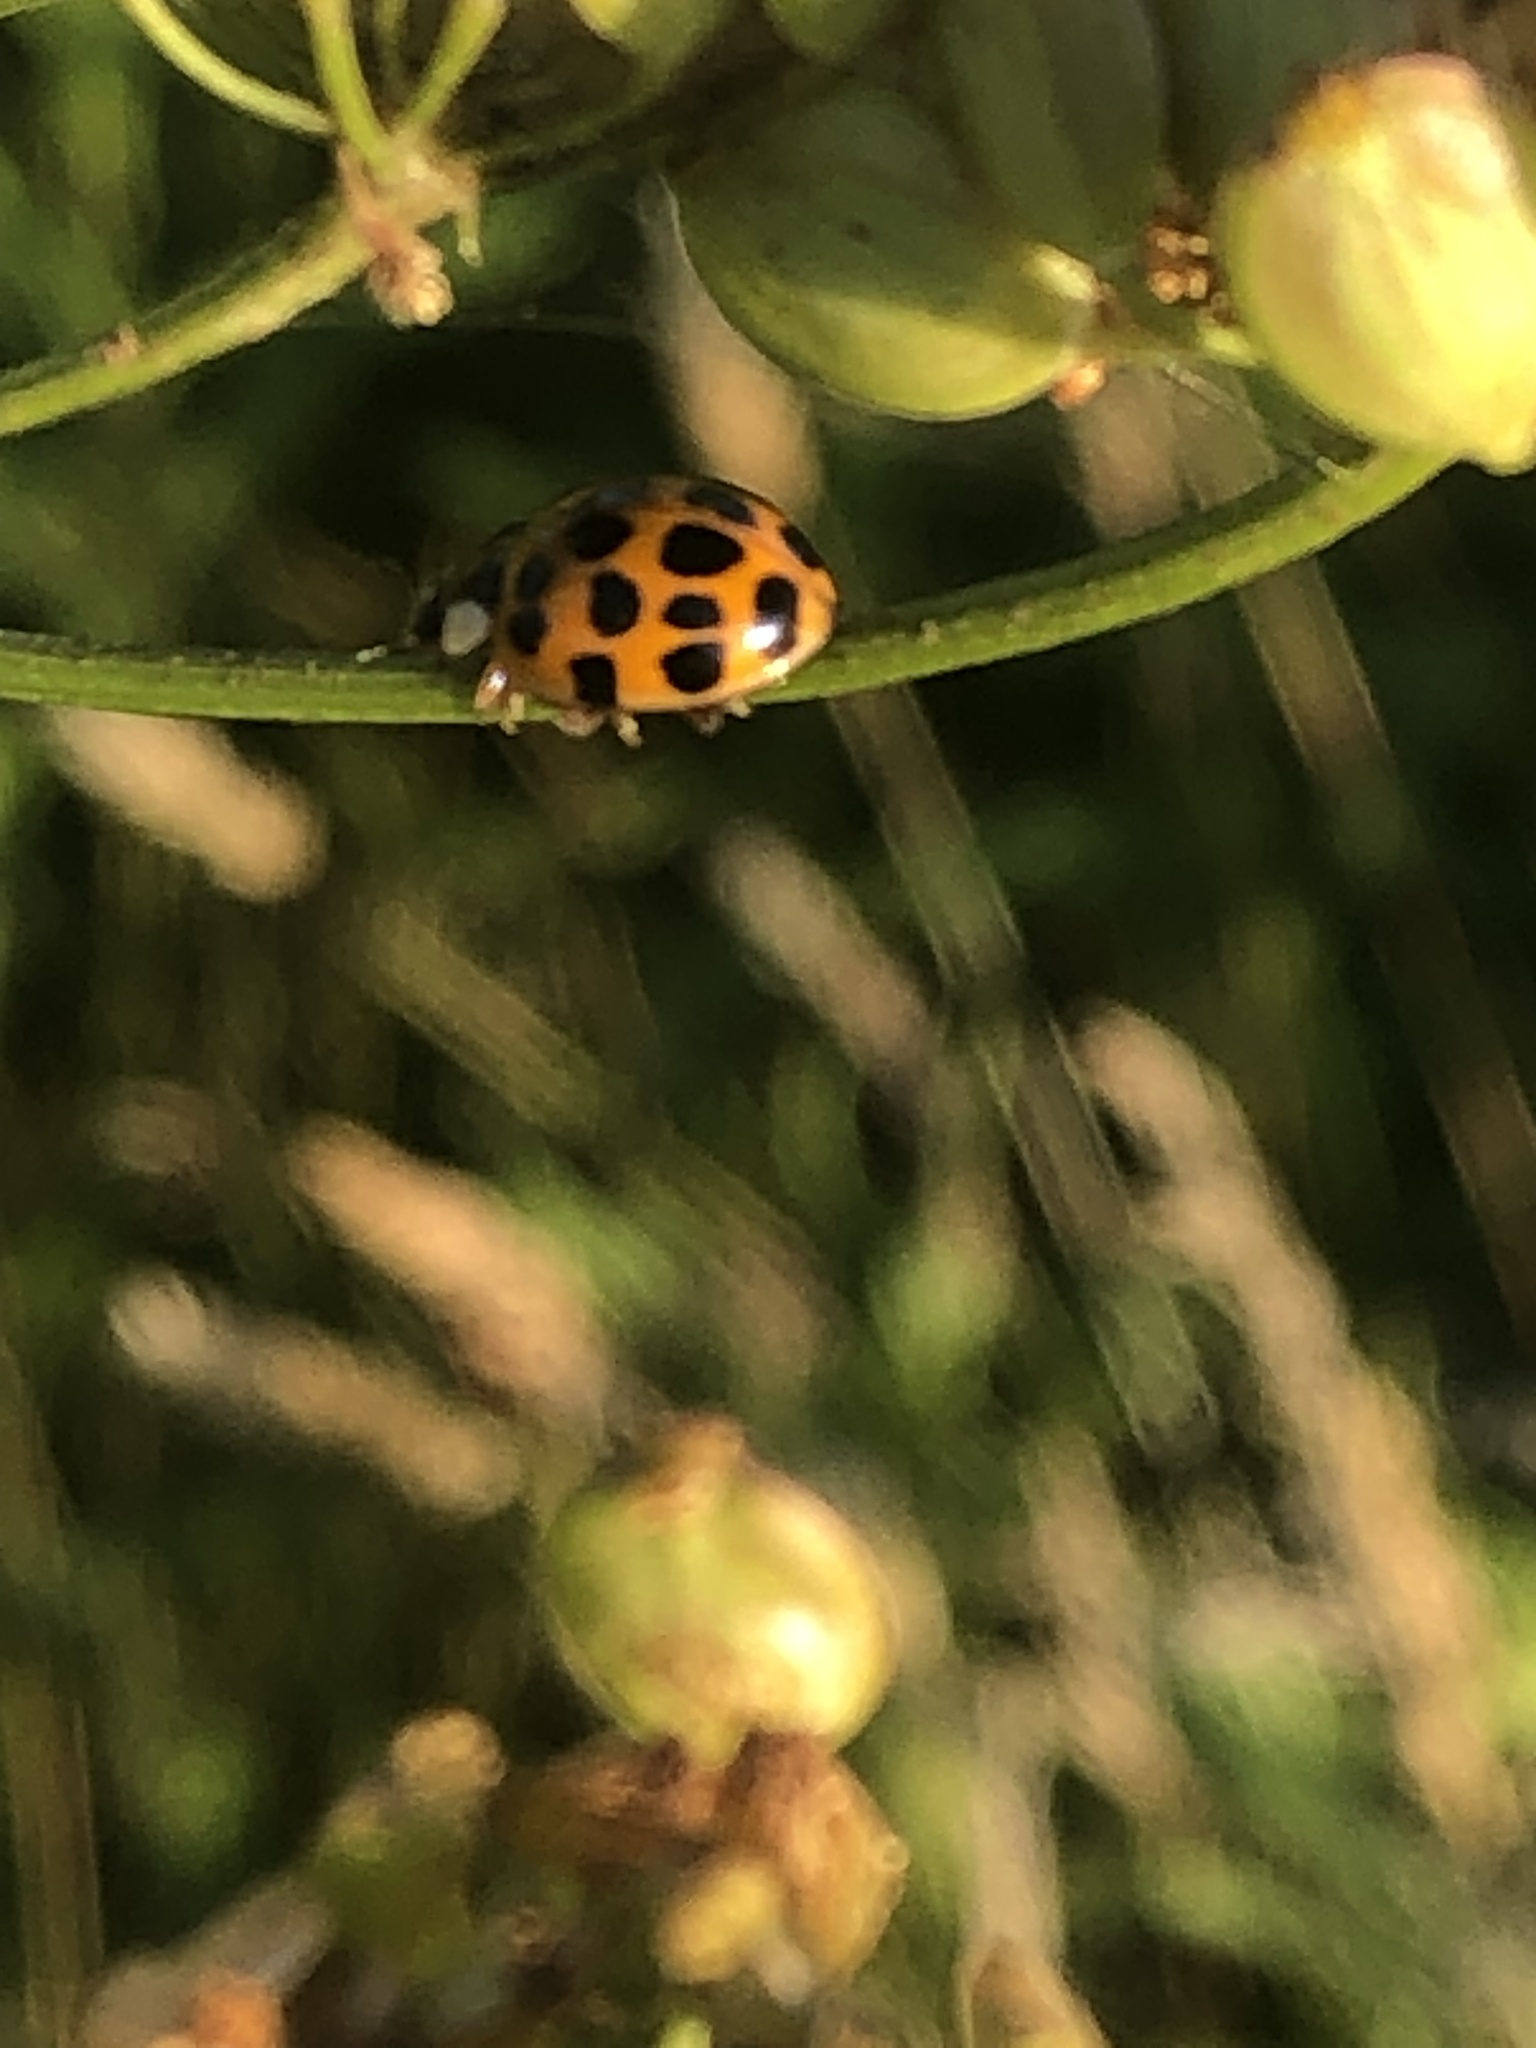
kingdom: Animalia
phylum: Arthropoda
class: Insecta
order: Coleoptera
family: Coccinellidae
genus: Harmonia
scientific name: Harmonia axyridis
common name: Harlequin ladybird
